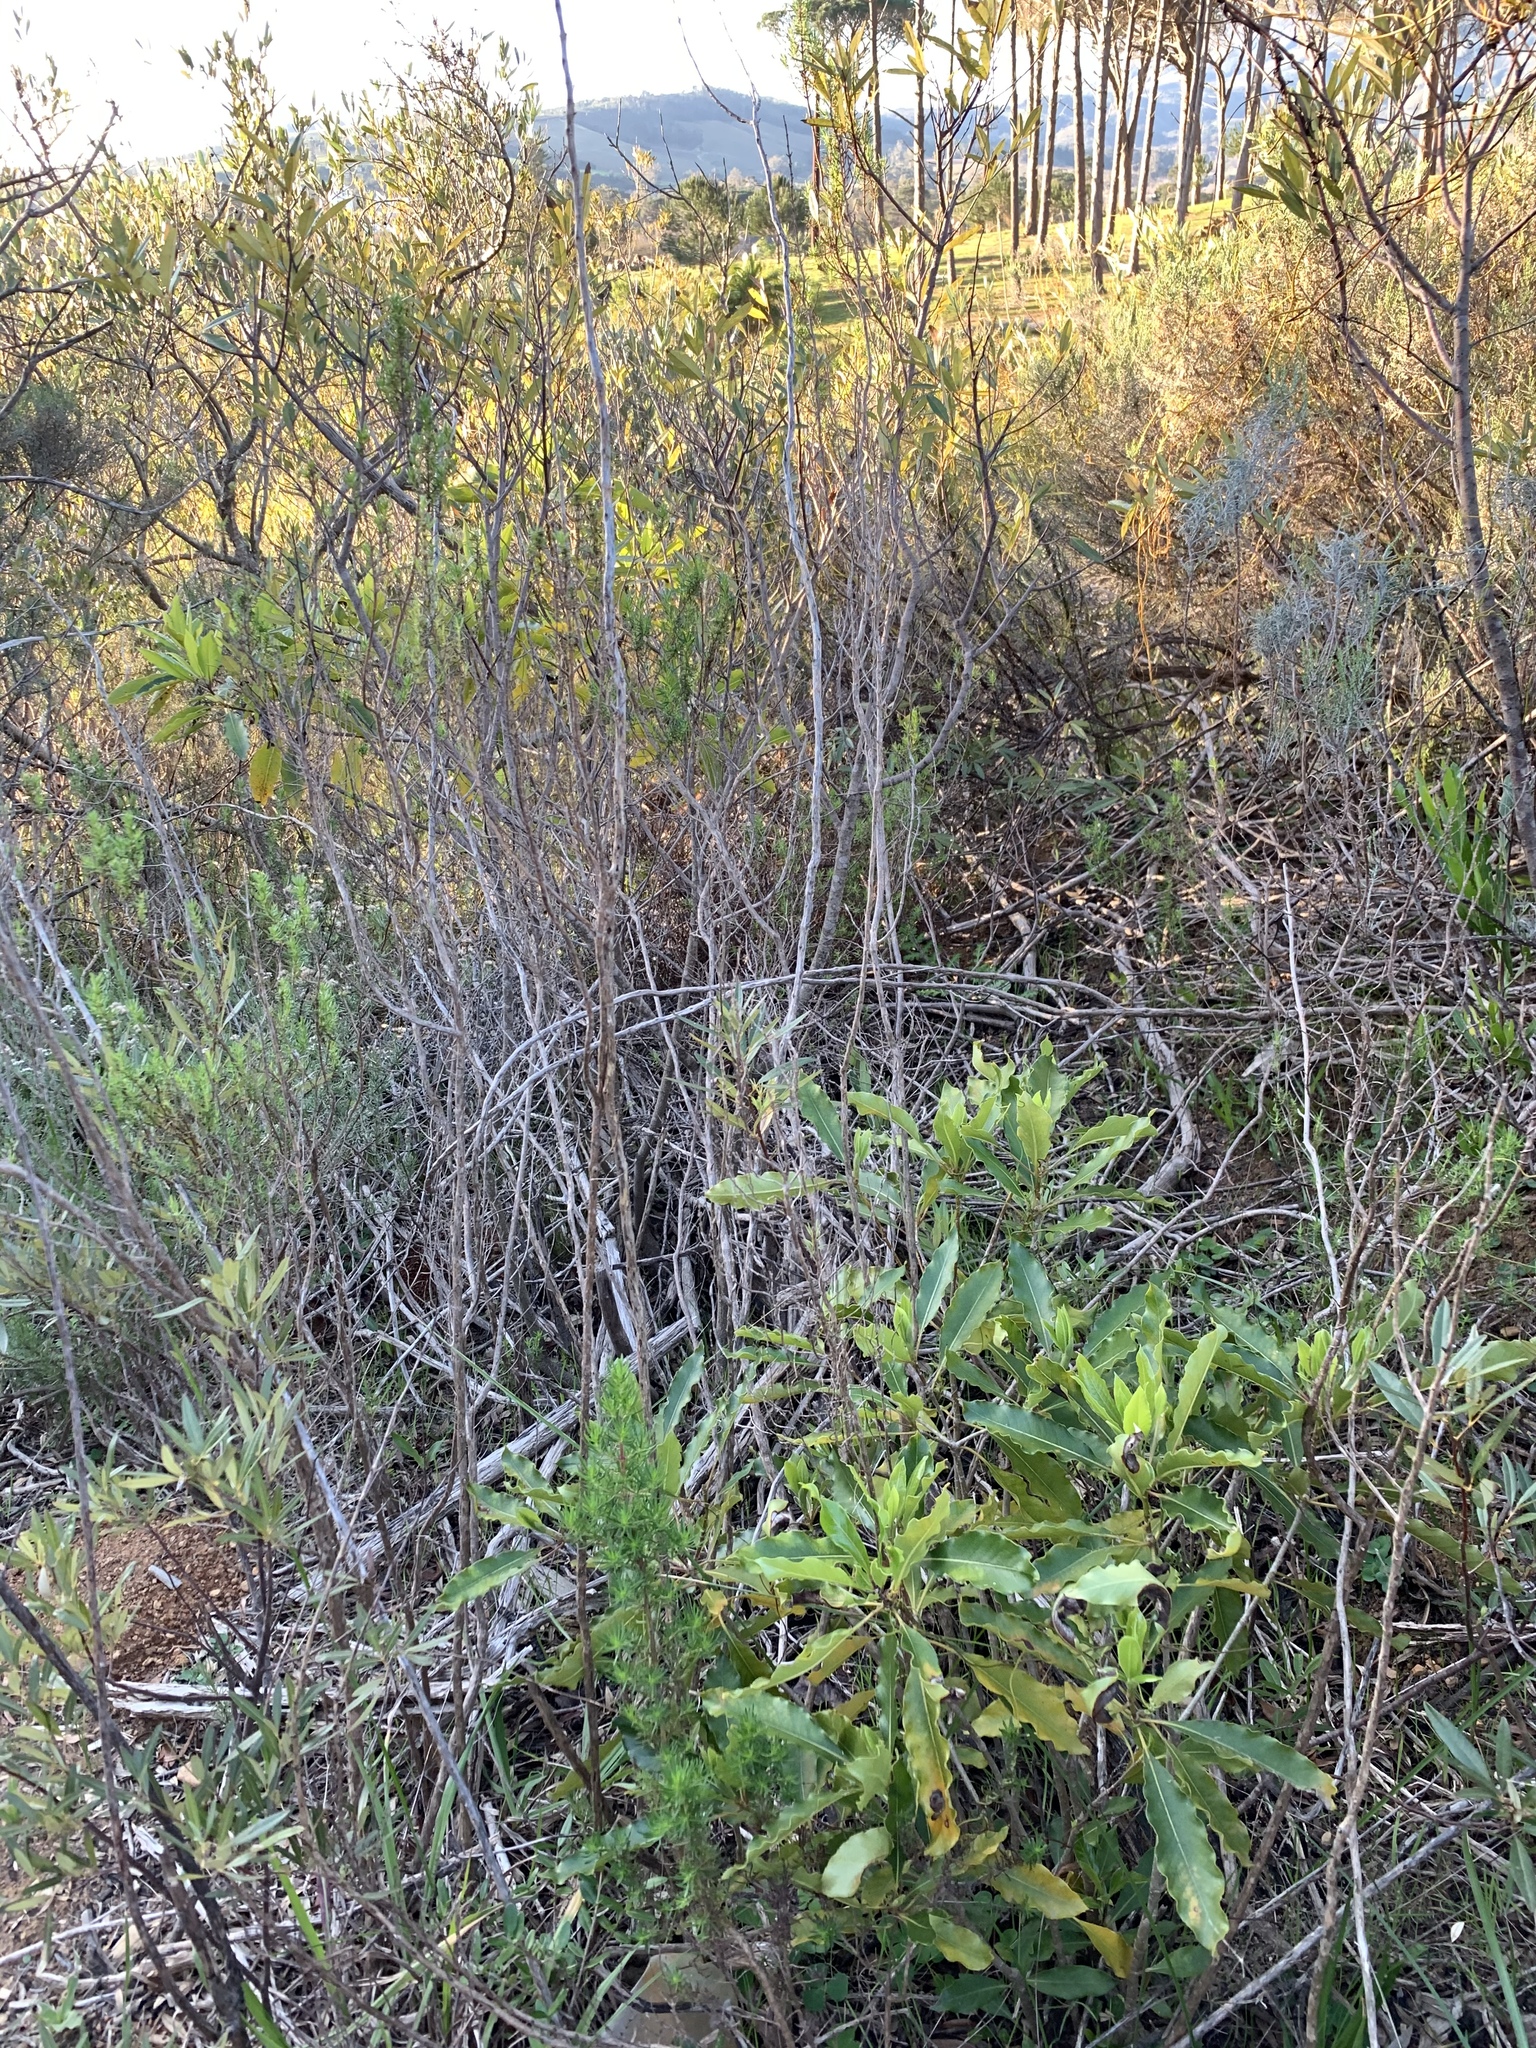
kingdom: Plantae
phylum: Tracheophyta
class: Magnoliopsida
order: Apiales
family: Pittosporaceae
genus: Pittosporum
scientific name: Pittosporum undulatum
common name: Australian cheesewood
